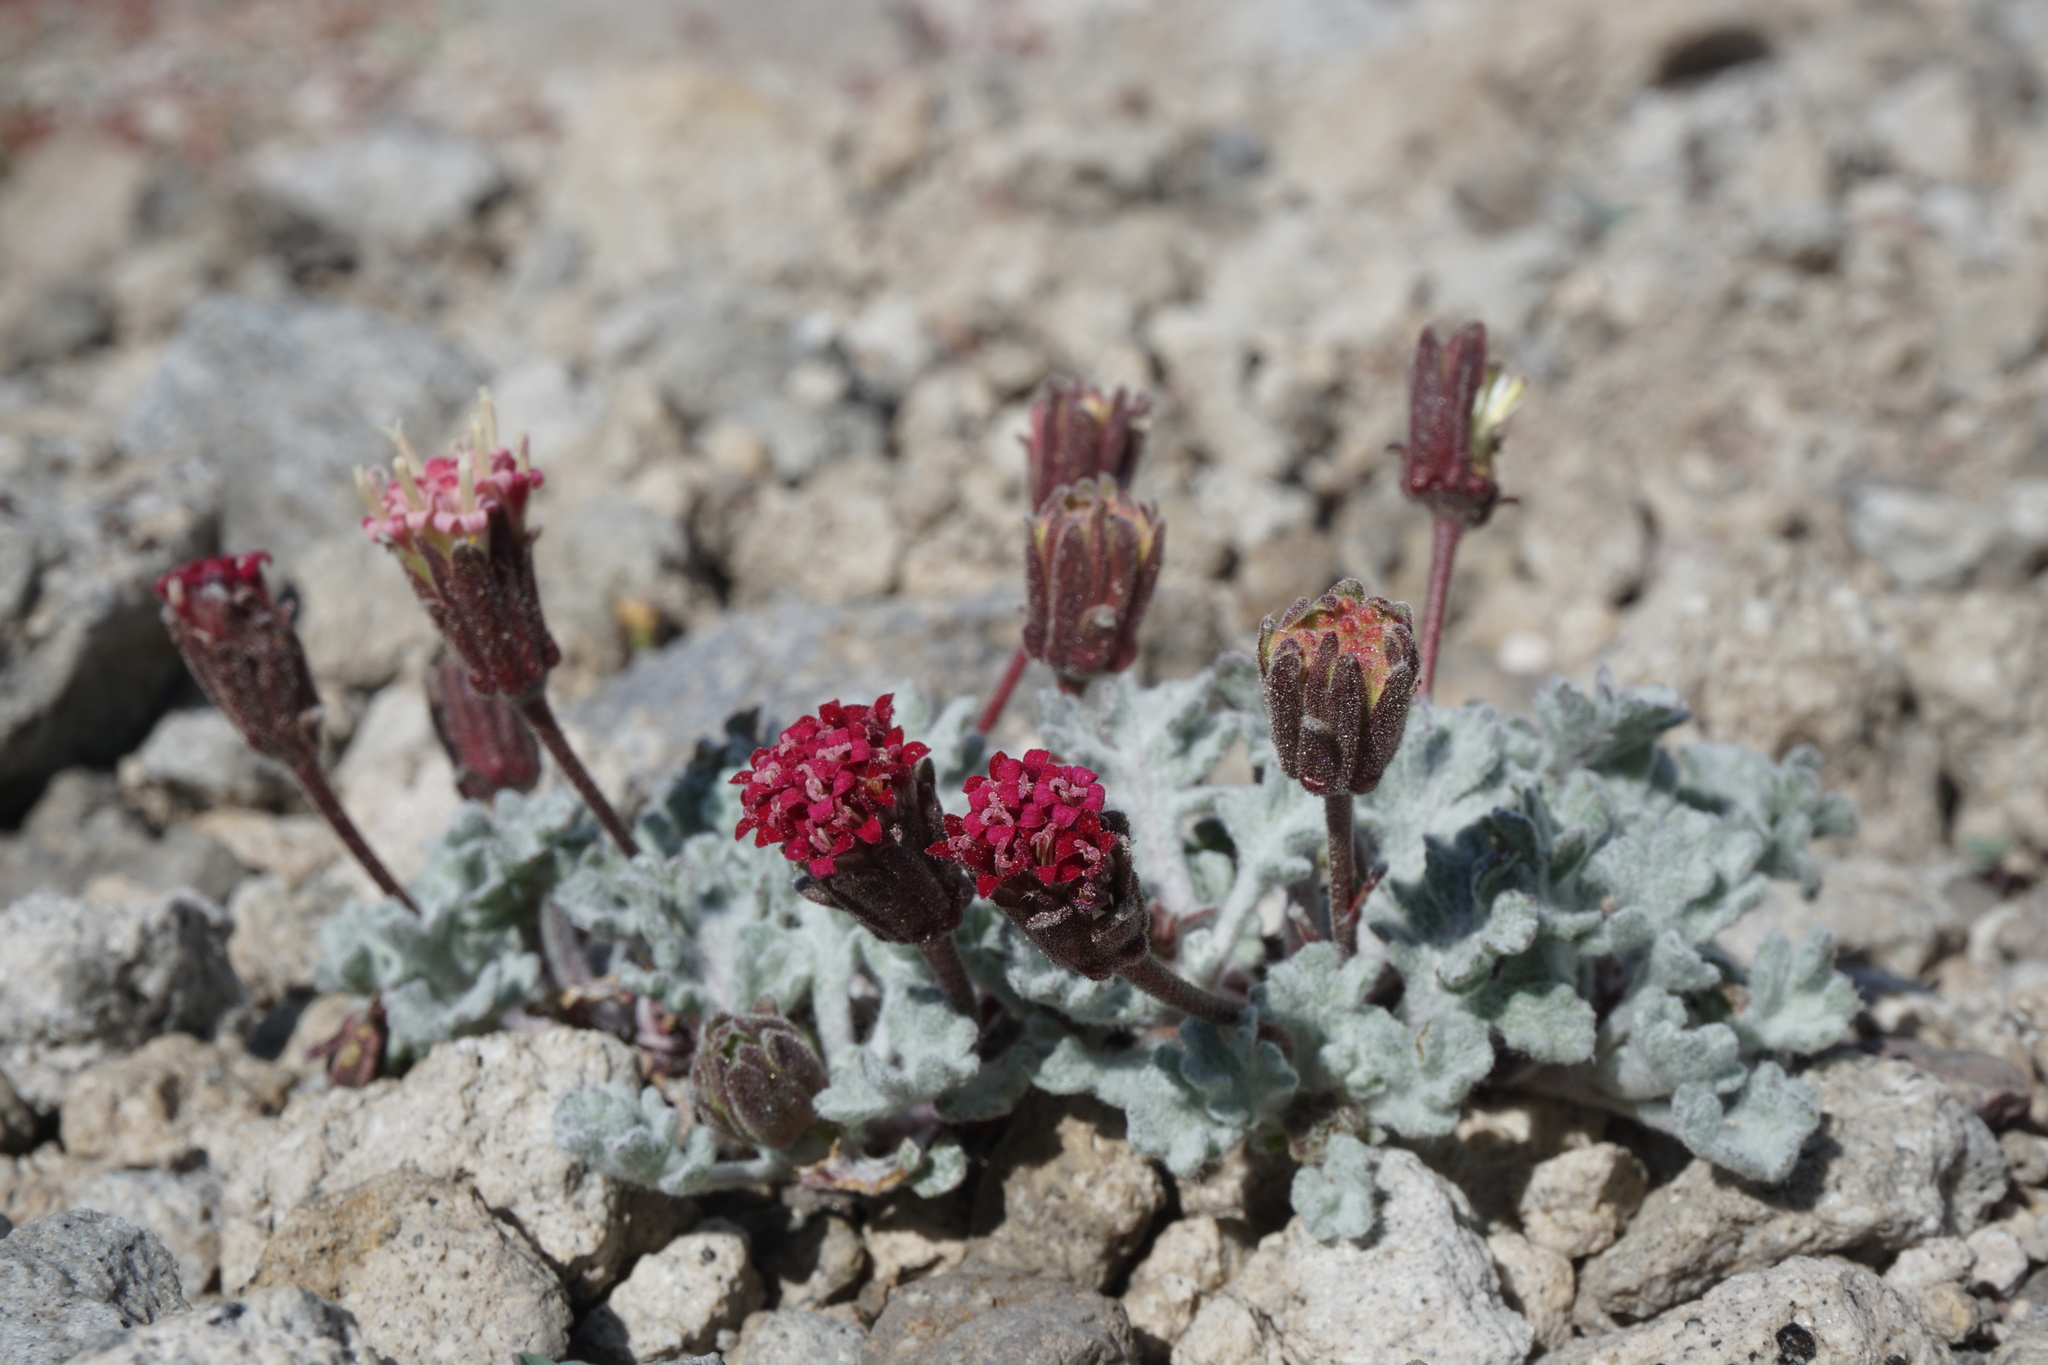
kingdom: Plantae
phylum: Tracheophyta
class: Magnoliopsida
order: Asterales
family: Asteraceae
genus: Chaenactis
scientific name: Chaenactis nevadensis
